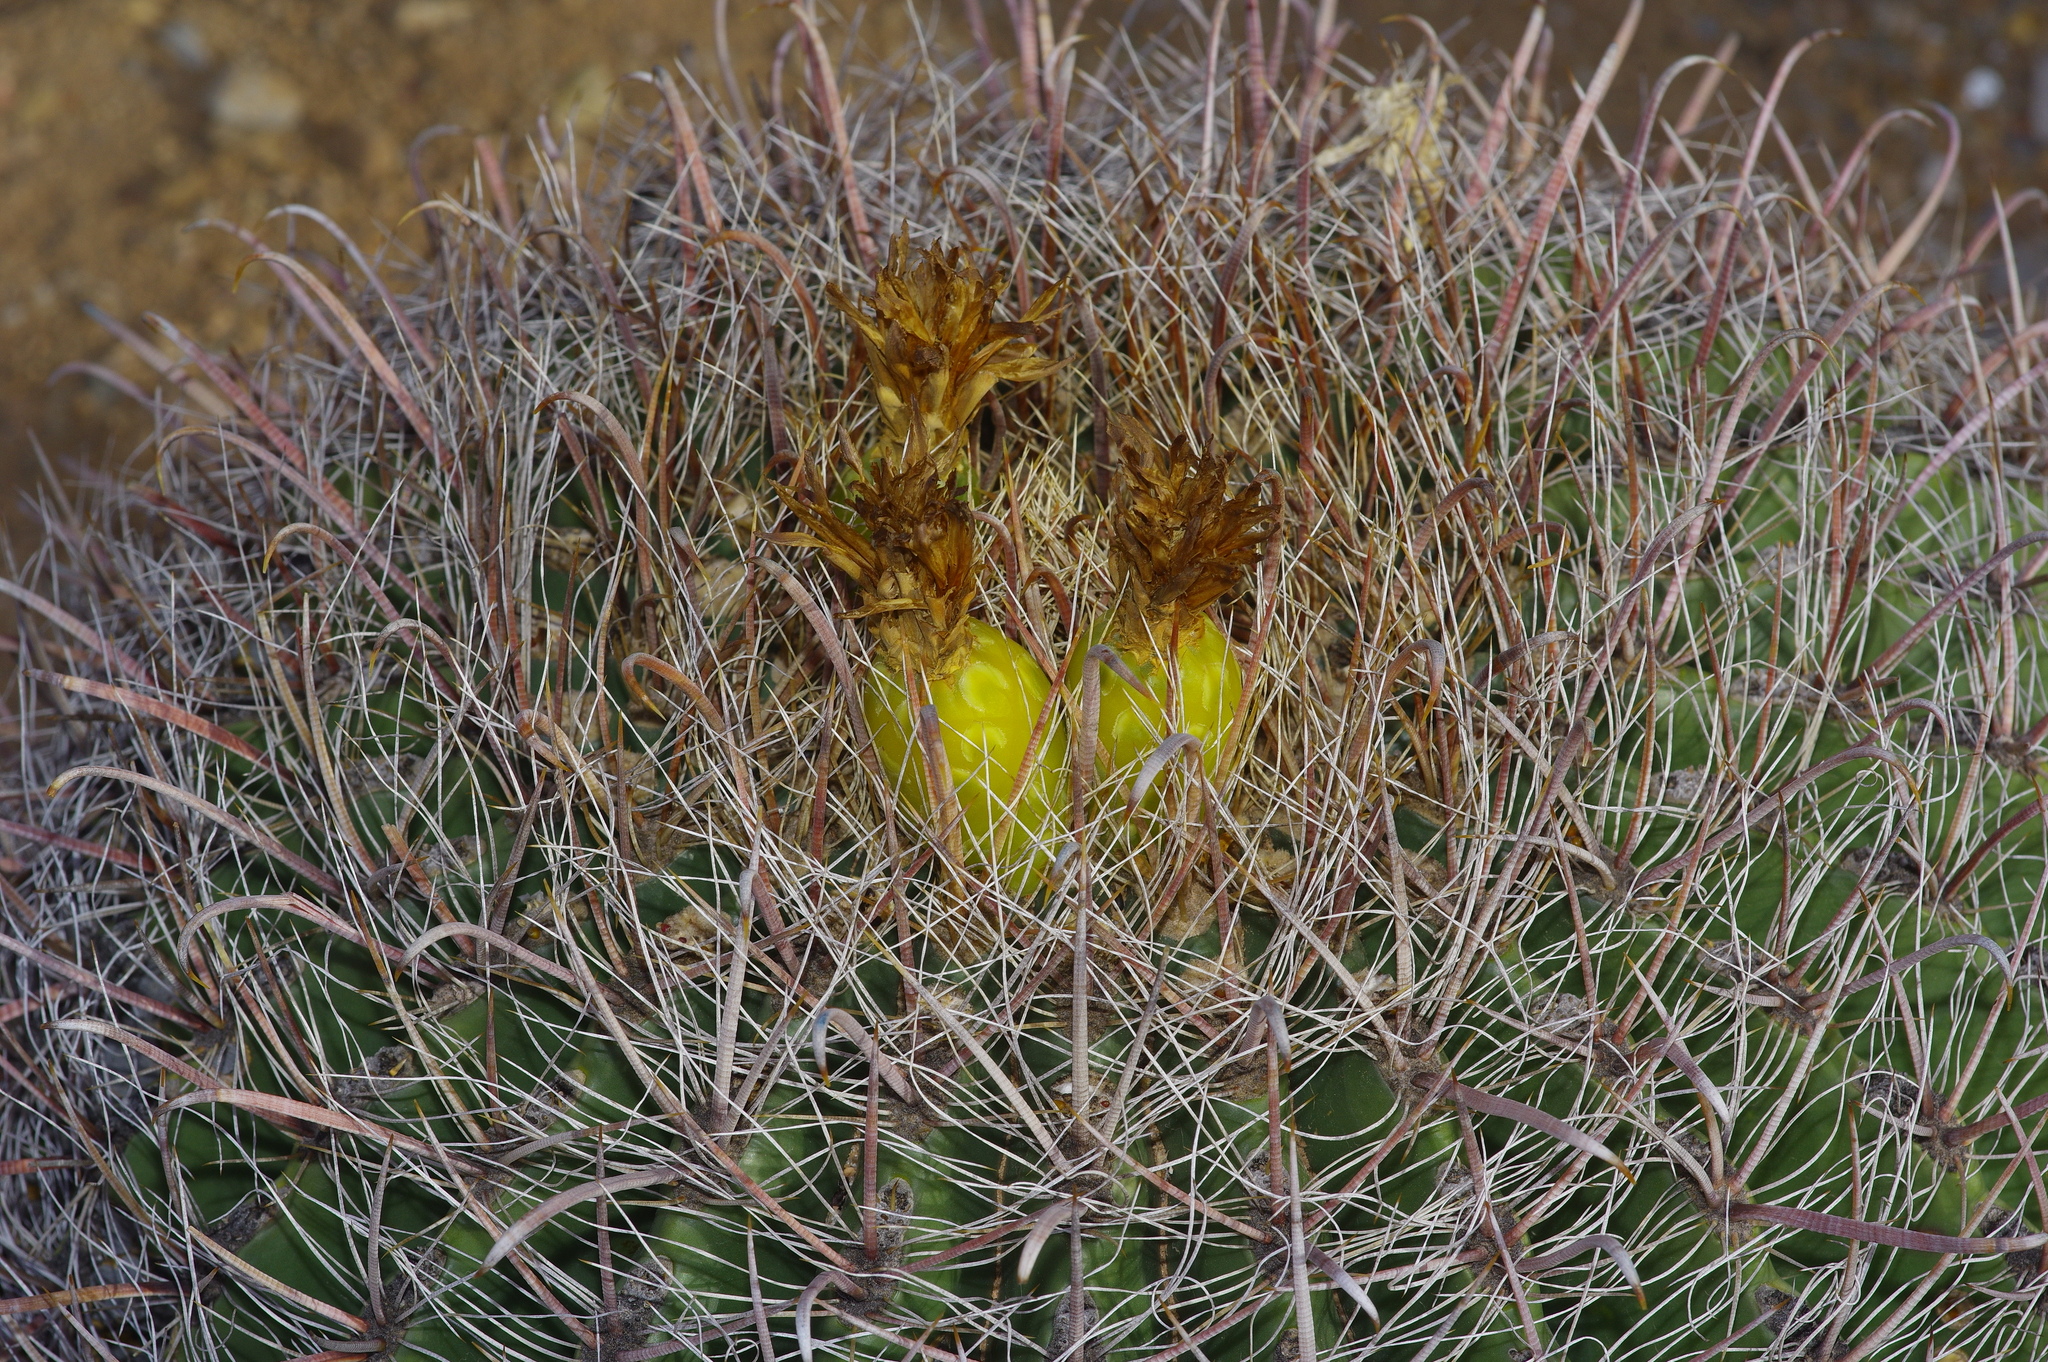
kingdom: Plantae
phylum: Tracheophyta
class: Magnoliopsida
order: Caryophyllales
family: Cactaceae
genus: Ferocactus
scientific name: Ferocactus wislizeni
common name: Candy barrel cactus
